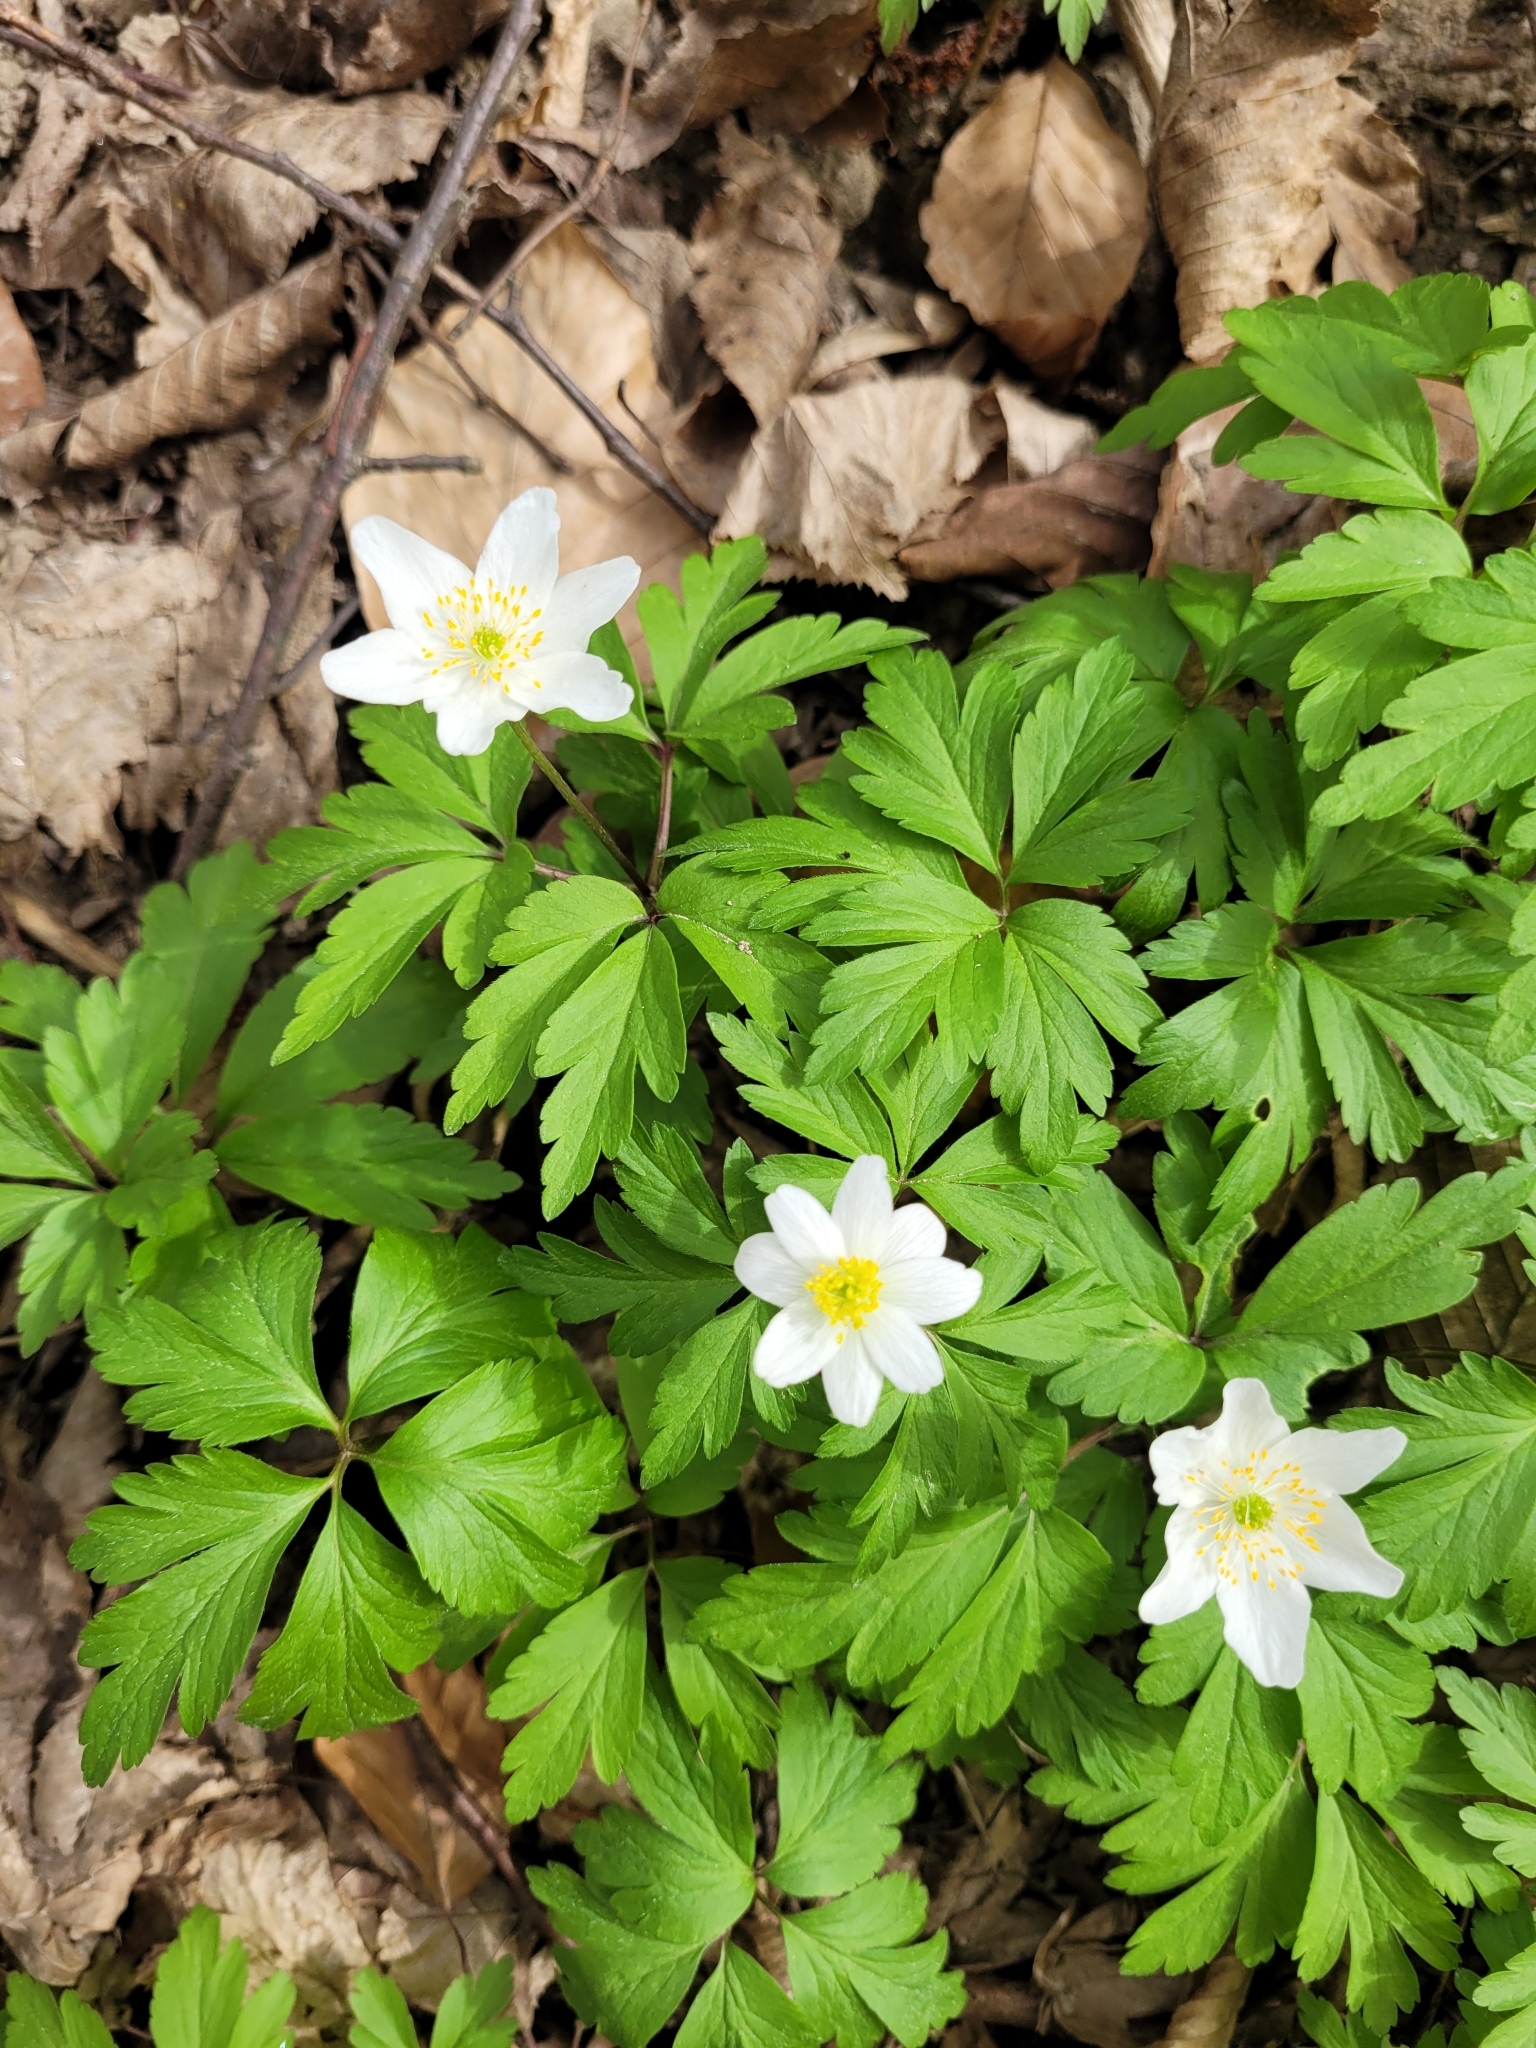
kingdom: Plantae
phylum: Tracheophyta
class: Magnoliopsida
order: Ranunculales
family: Ranunculaceae
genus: Anemone
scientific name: Anemone nemorosa
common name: Wood anemone
